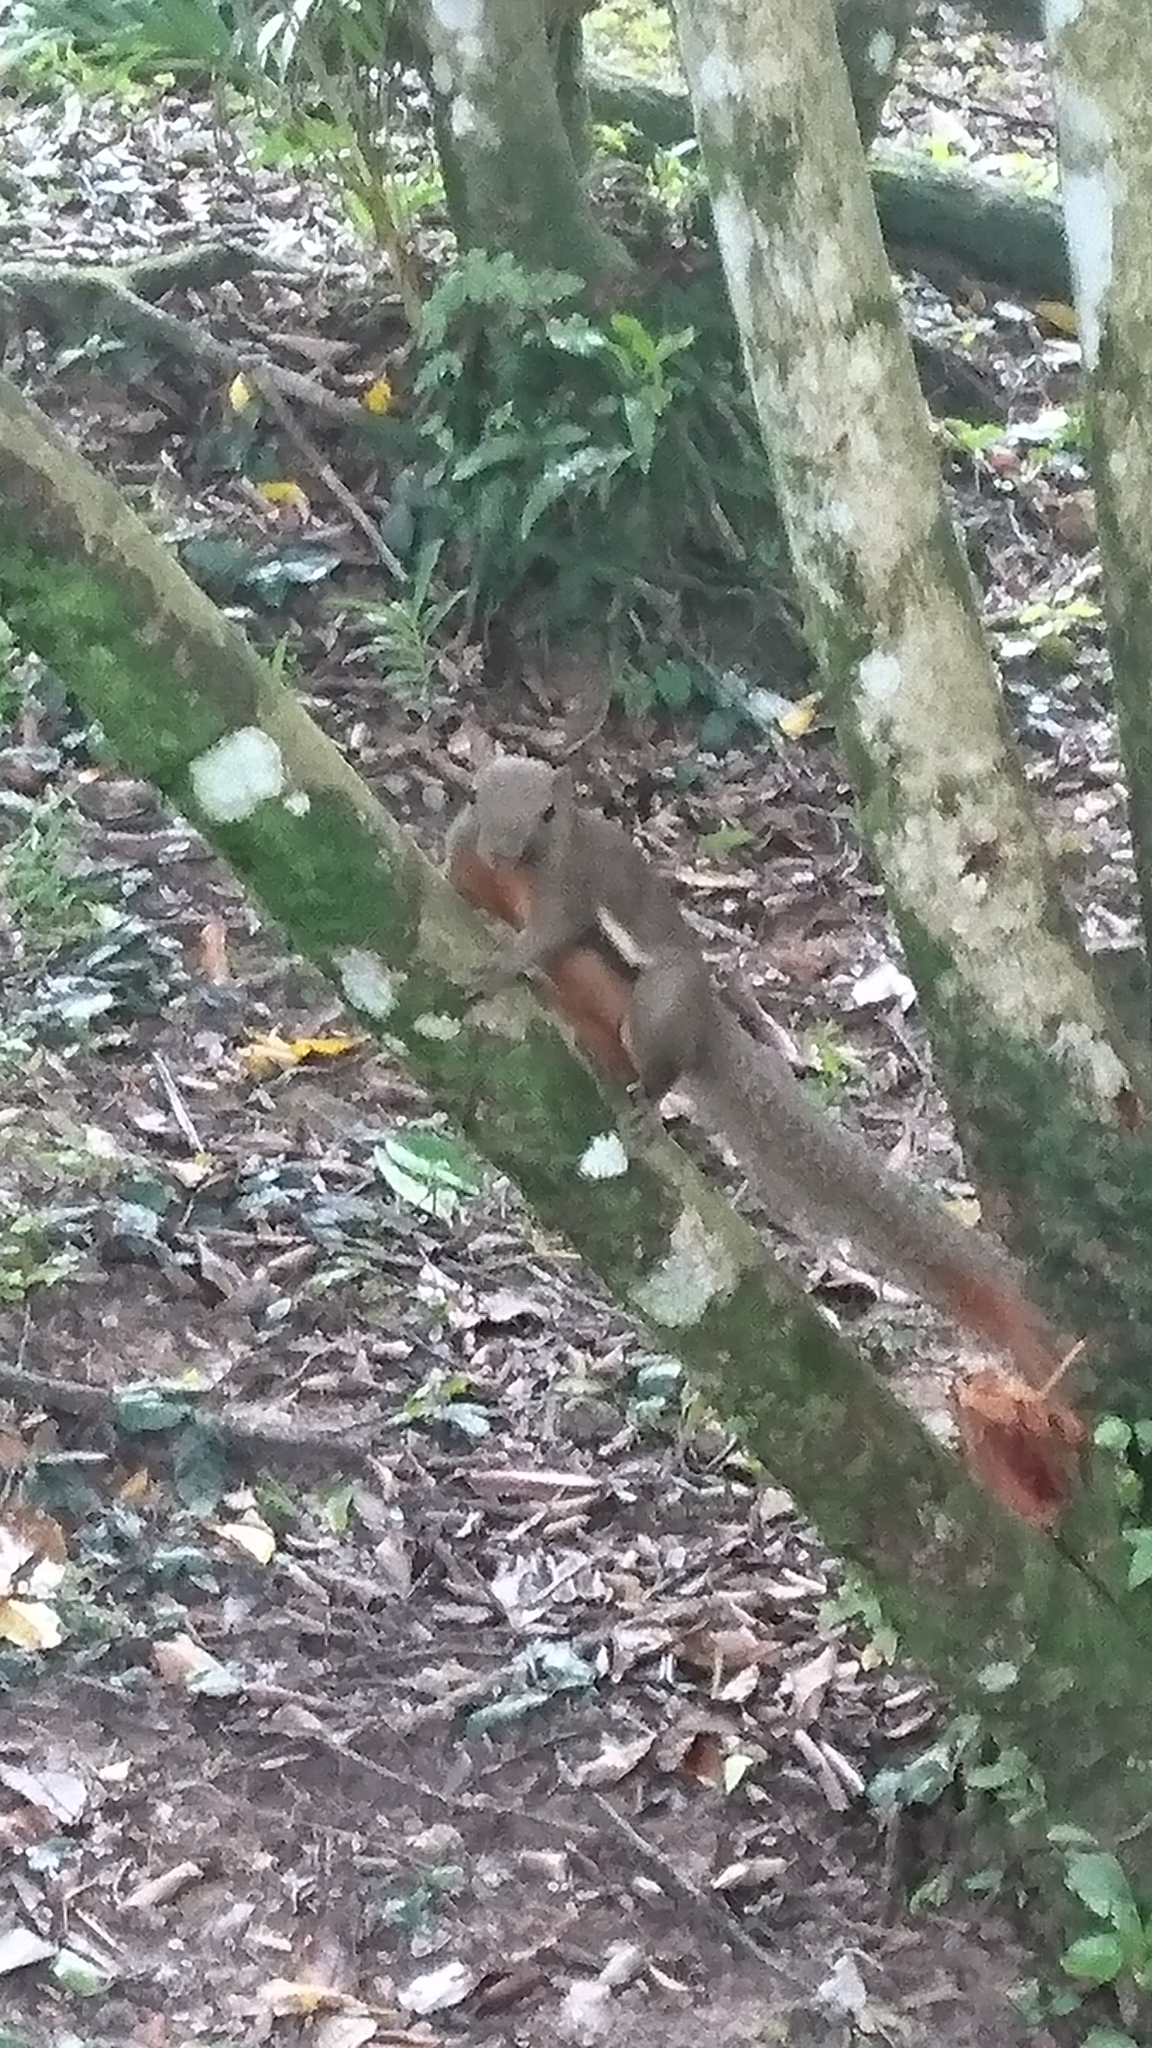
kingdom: Animalia
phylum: Chordata
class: Mammalia
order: Rodentia
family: Sciuridae
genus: Callosciurus
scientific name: Callosciurus notatus
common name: Plantain squirrel
